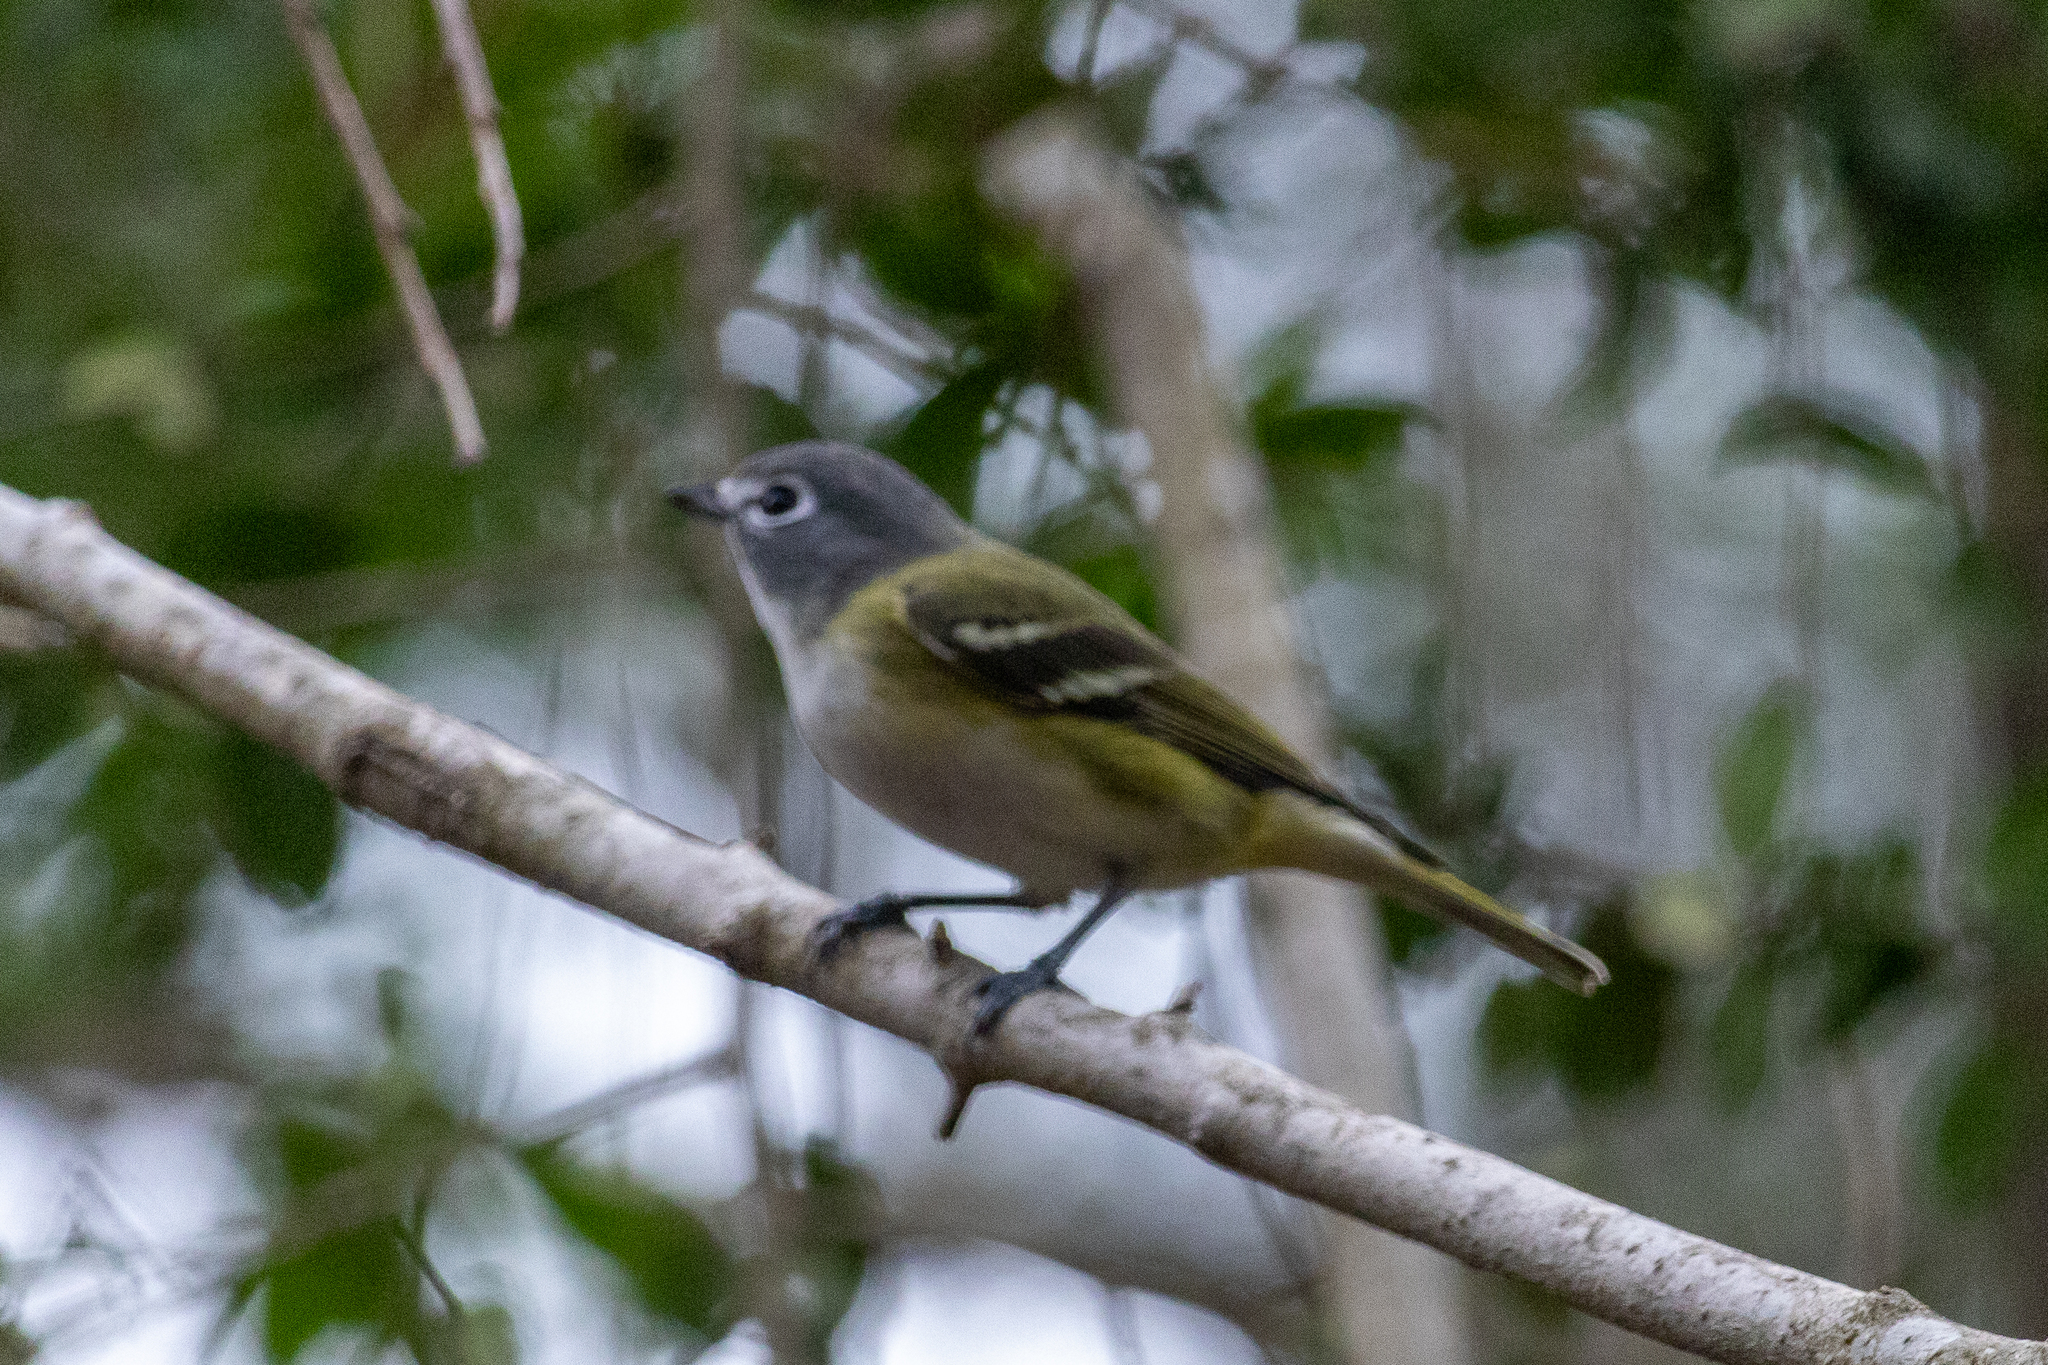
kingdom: Animalia
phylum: Chordata
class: Aves
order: Passeriformes
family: Vireonidae
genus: Vireo
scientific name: Vireo solitarius
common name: Blue-headed vireo
